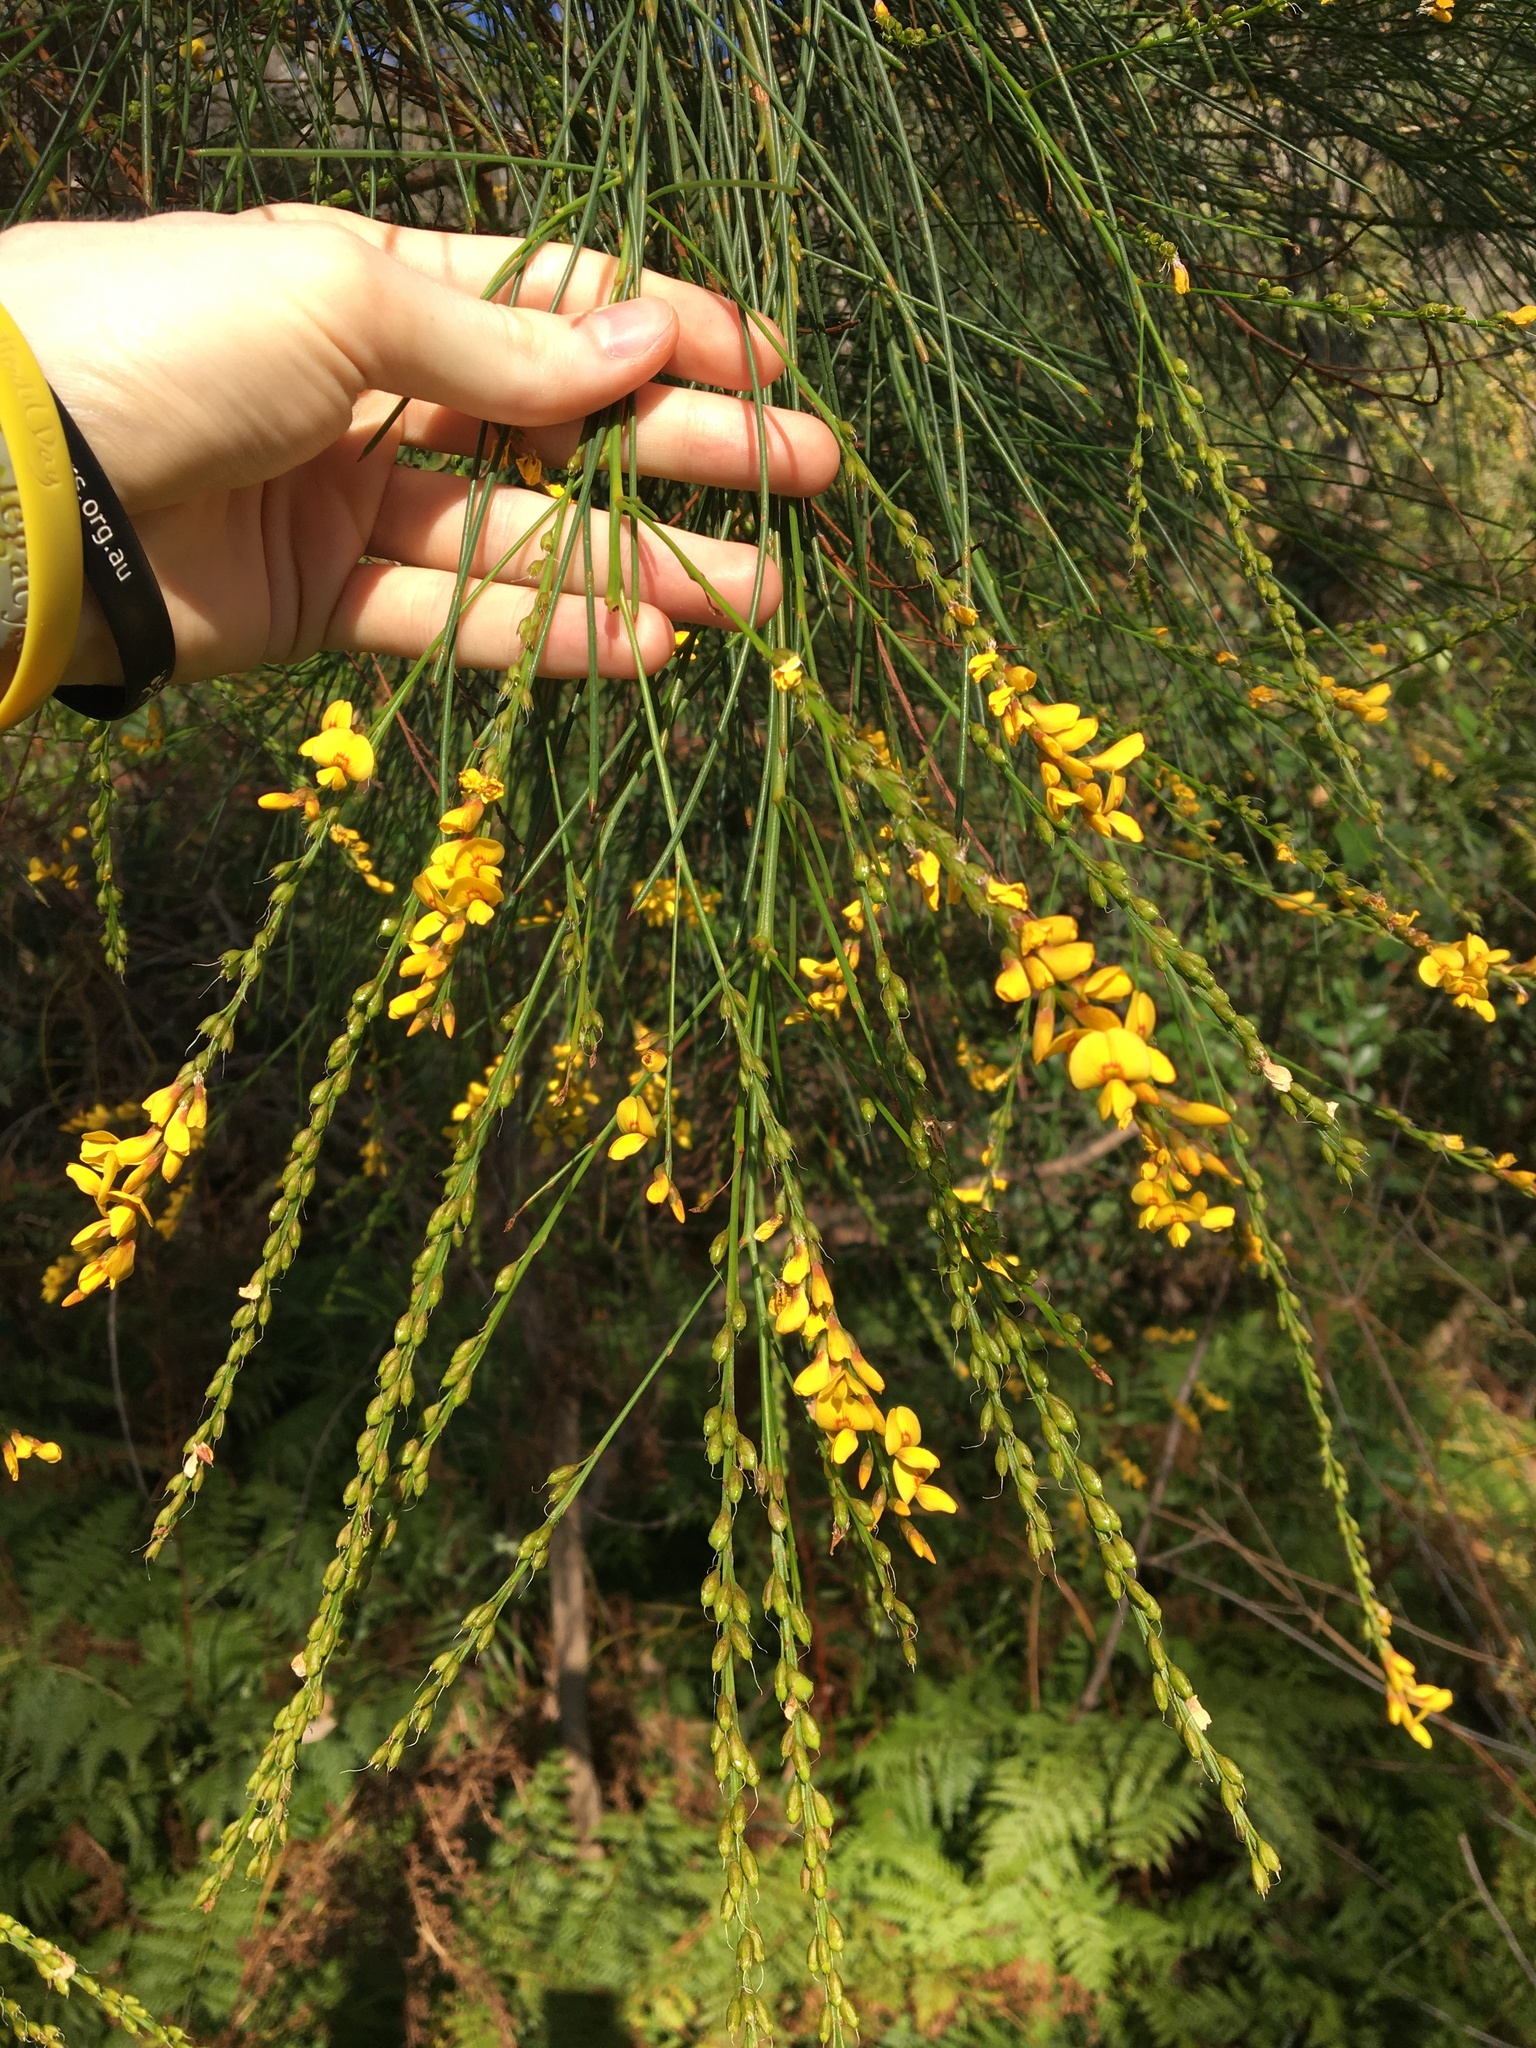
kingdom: Plantae
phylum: Tracheophyta
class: Magnoliopsida
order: Fabales
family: Fabaceae
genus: Viminaria
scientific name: Viminaria juncea
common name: Golden spray
